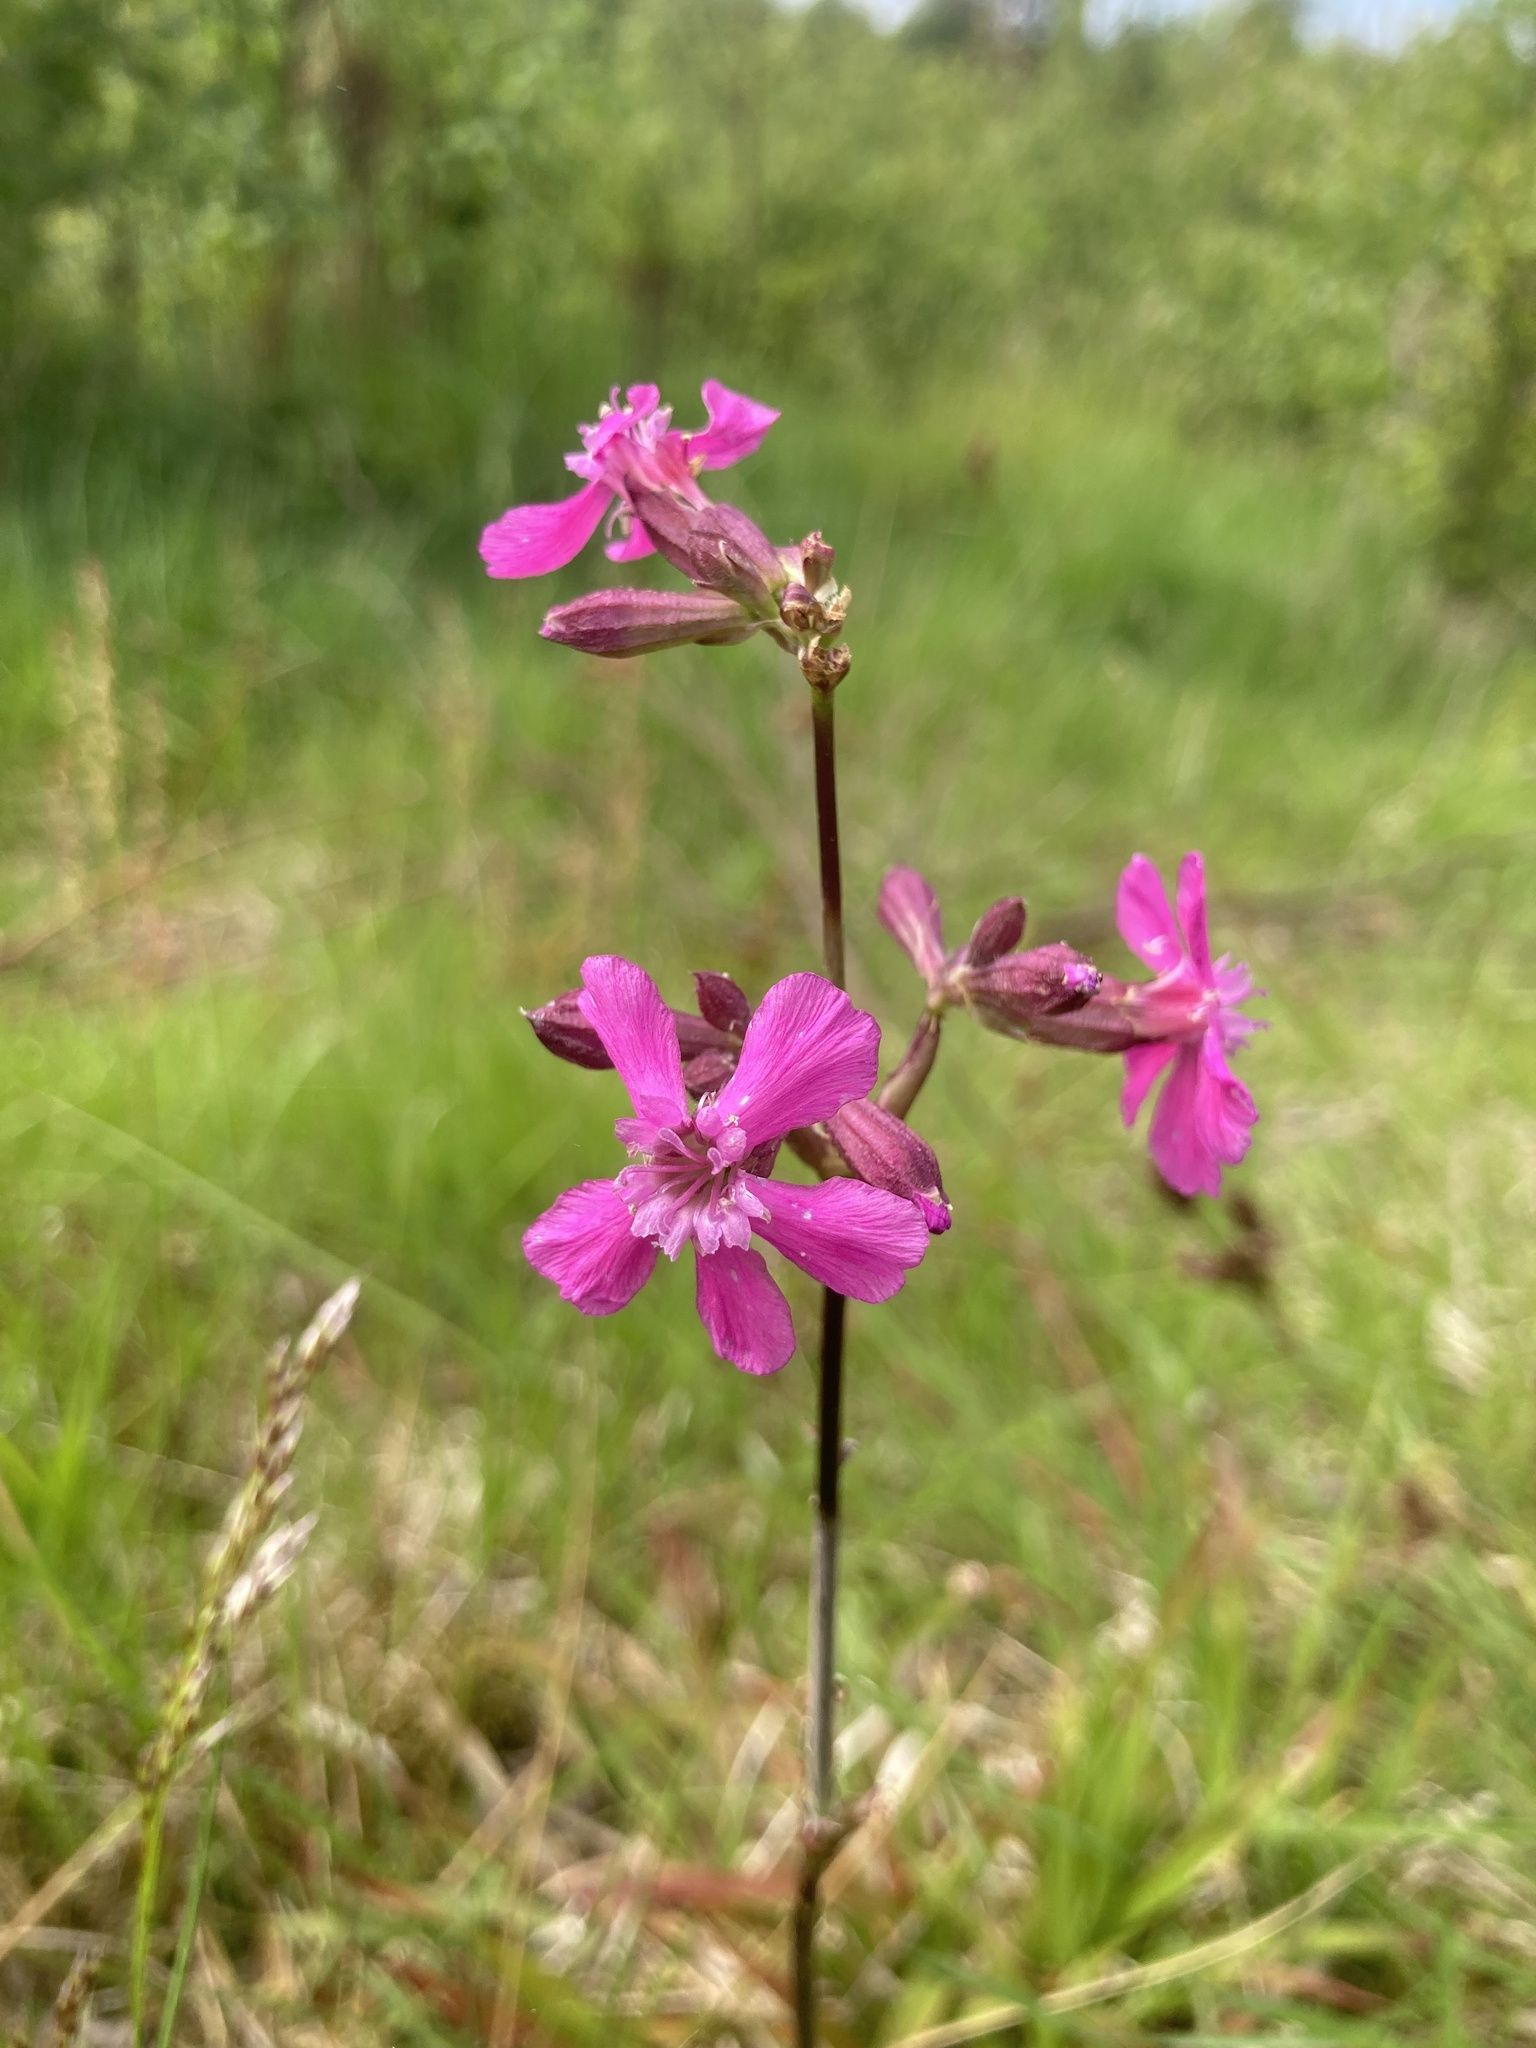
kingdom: Plantae
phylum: Tracheophyta
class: Magnoliopsida
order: Caryophyllales
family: Caryophyllaceae
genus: Viscaria
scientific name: Viscaria vulgaris
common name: Clammy campion
